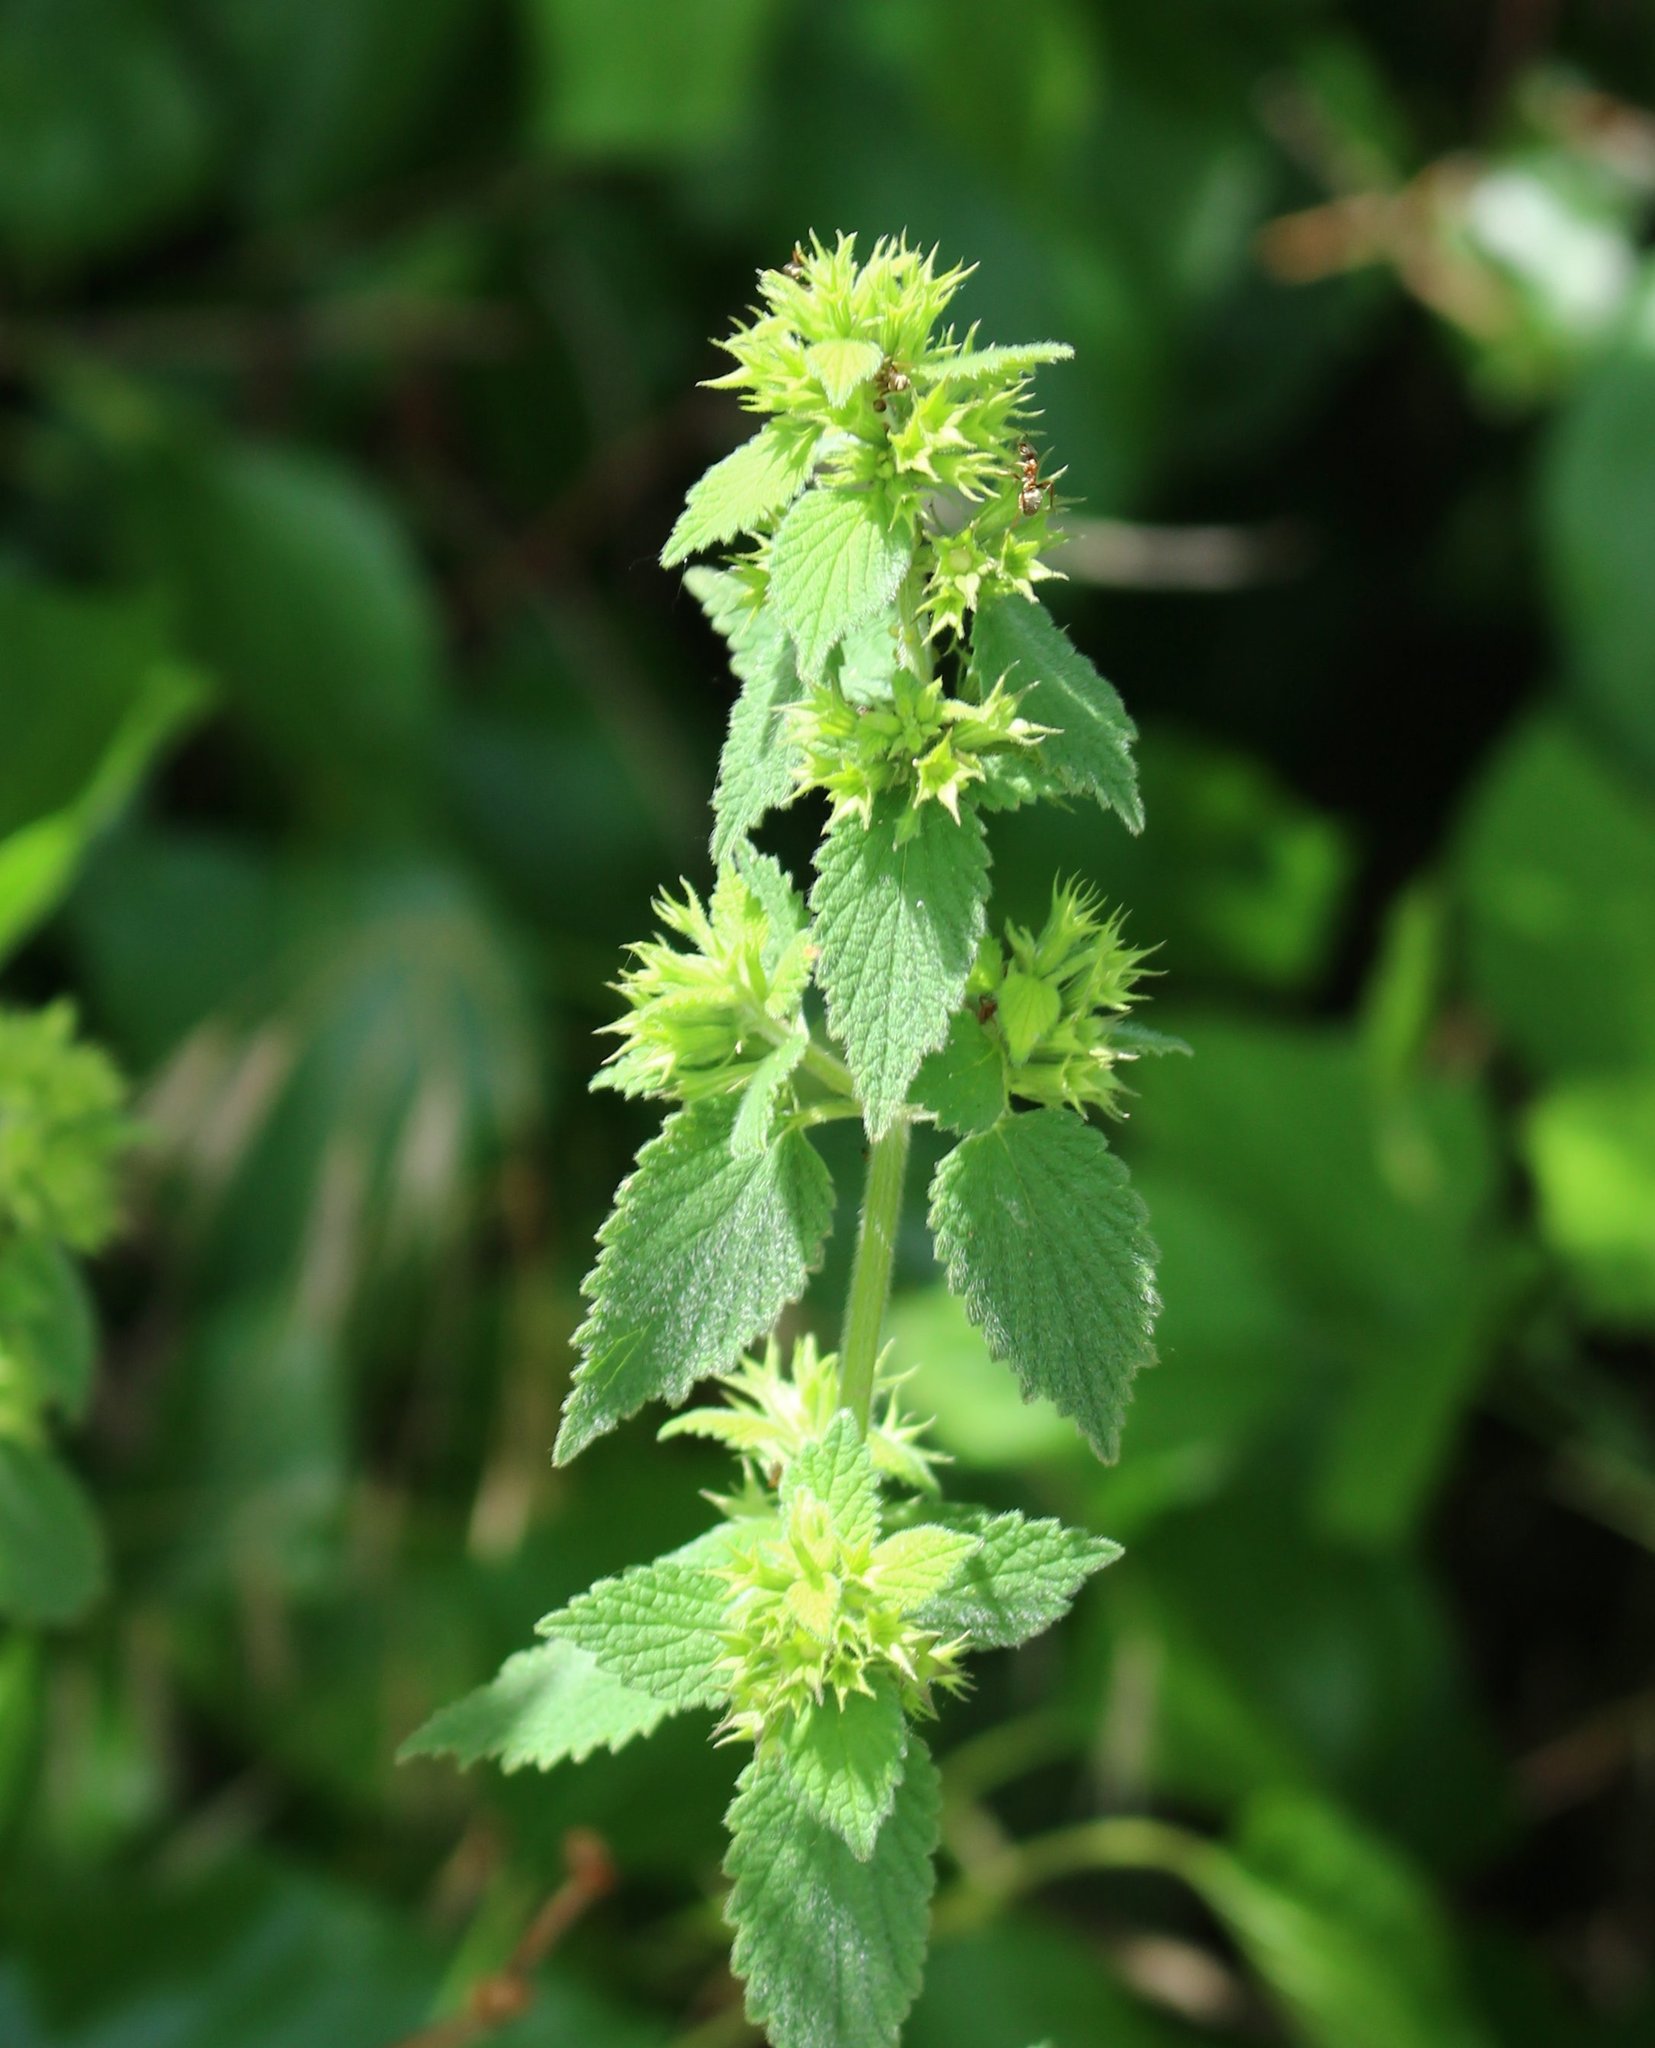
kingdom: Plantae
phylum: Tracheophyta
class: Magnoliopsida
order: Lamiales
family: Lamiaceae
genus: Ballota
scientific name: Ballota nigra
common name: Black horehound
